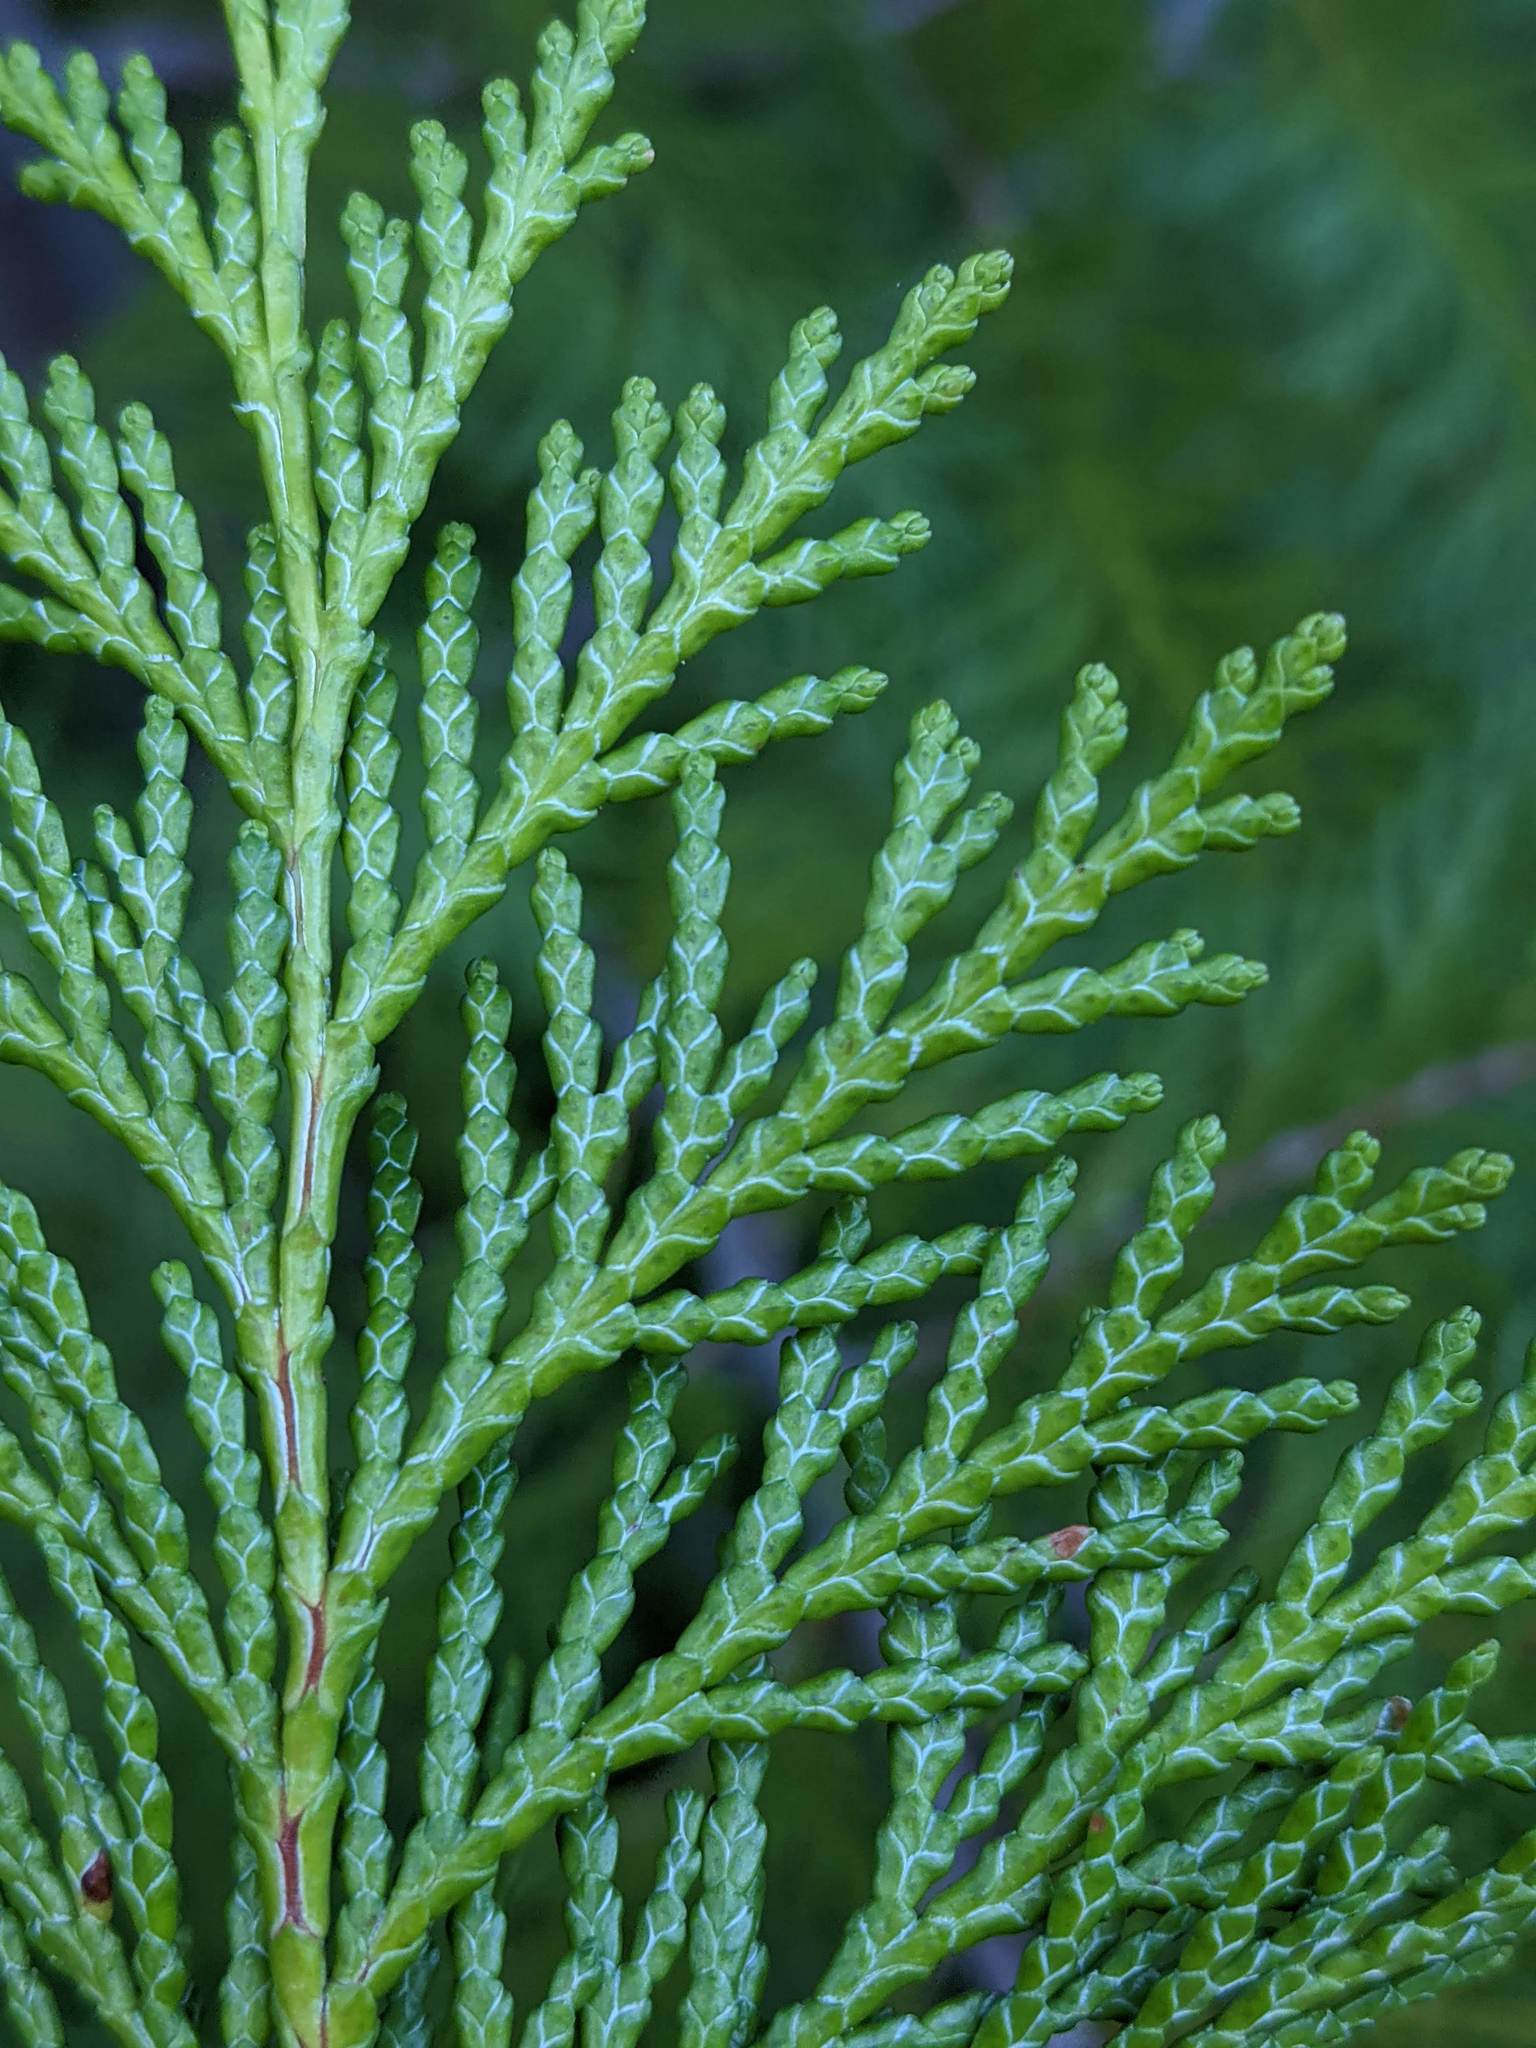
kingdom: Plantae
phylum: Tracheophyta
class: Pinopsida
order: Pinales
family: Cupressaceae
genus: Chamaecyparis
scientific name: Chamaecyparis lawsoniana
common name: Lawson's cypress
